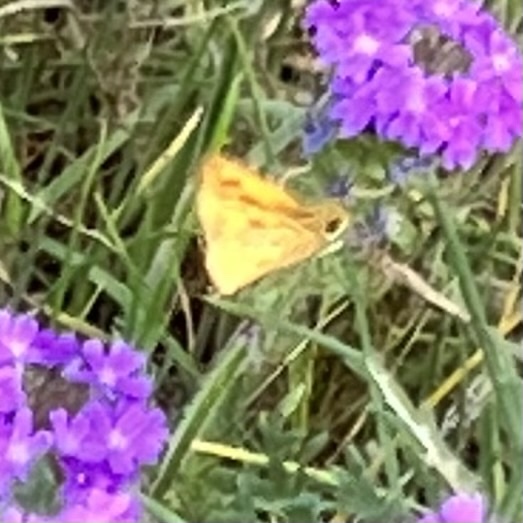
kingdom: Animalia
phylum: Arthropoda
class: Insecta
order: Lepidoptera
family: Hesperiidae
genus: Hylephila
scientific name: Hylephila phyleus
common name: Fiery skipper
